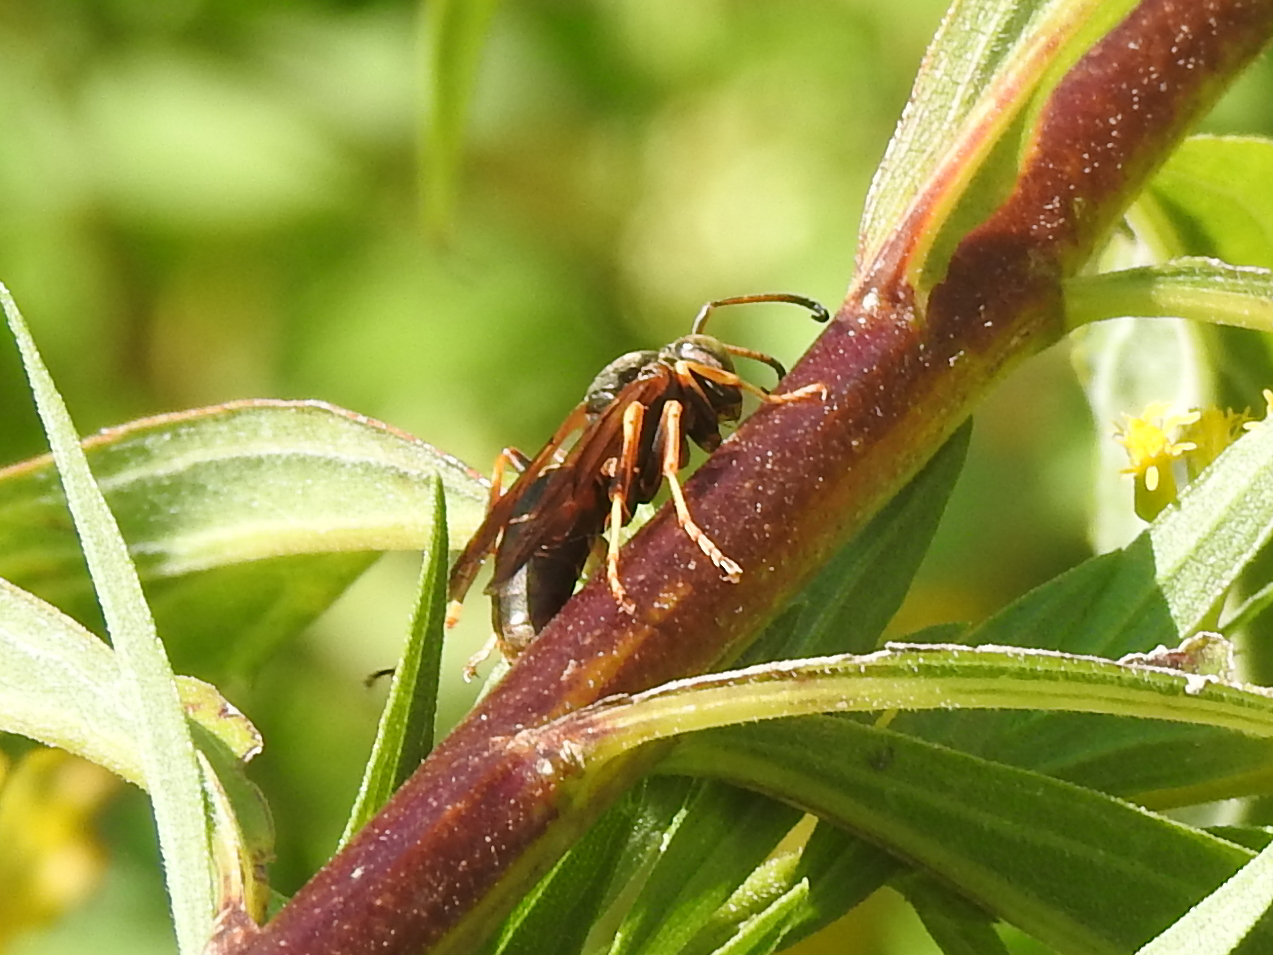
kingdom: Animalia
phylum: Arthropoda
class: Insecta
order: Hymenoptera
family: Eumenidae
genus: Polistes
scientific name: Polistes fuscatus
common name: Dark paper wasp
